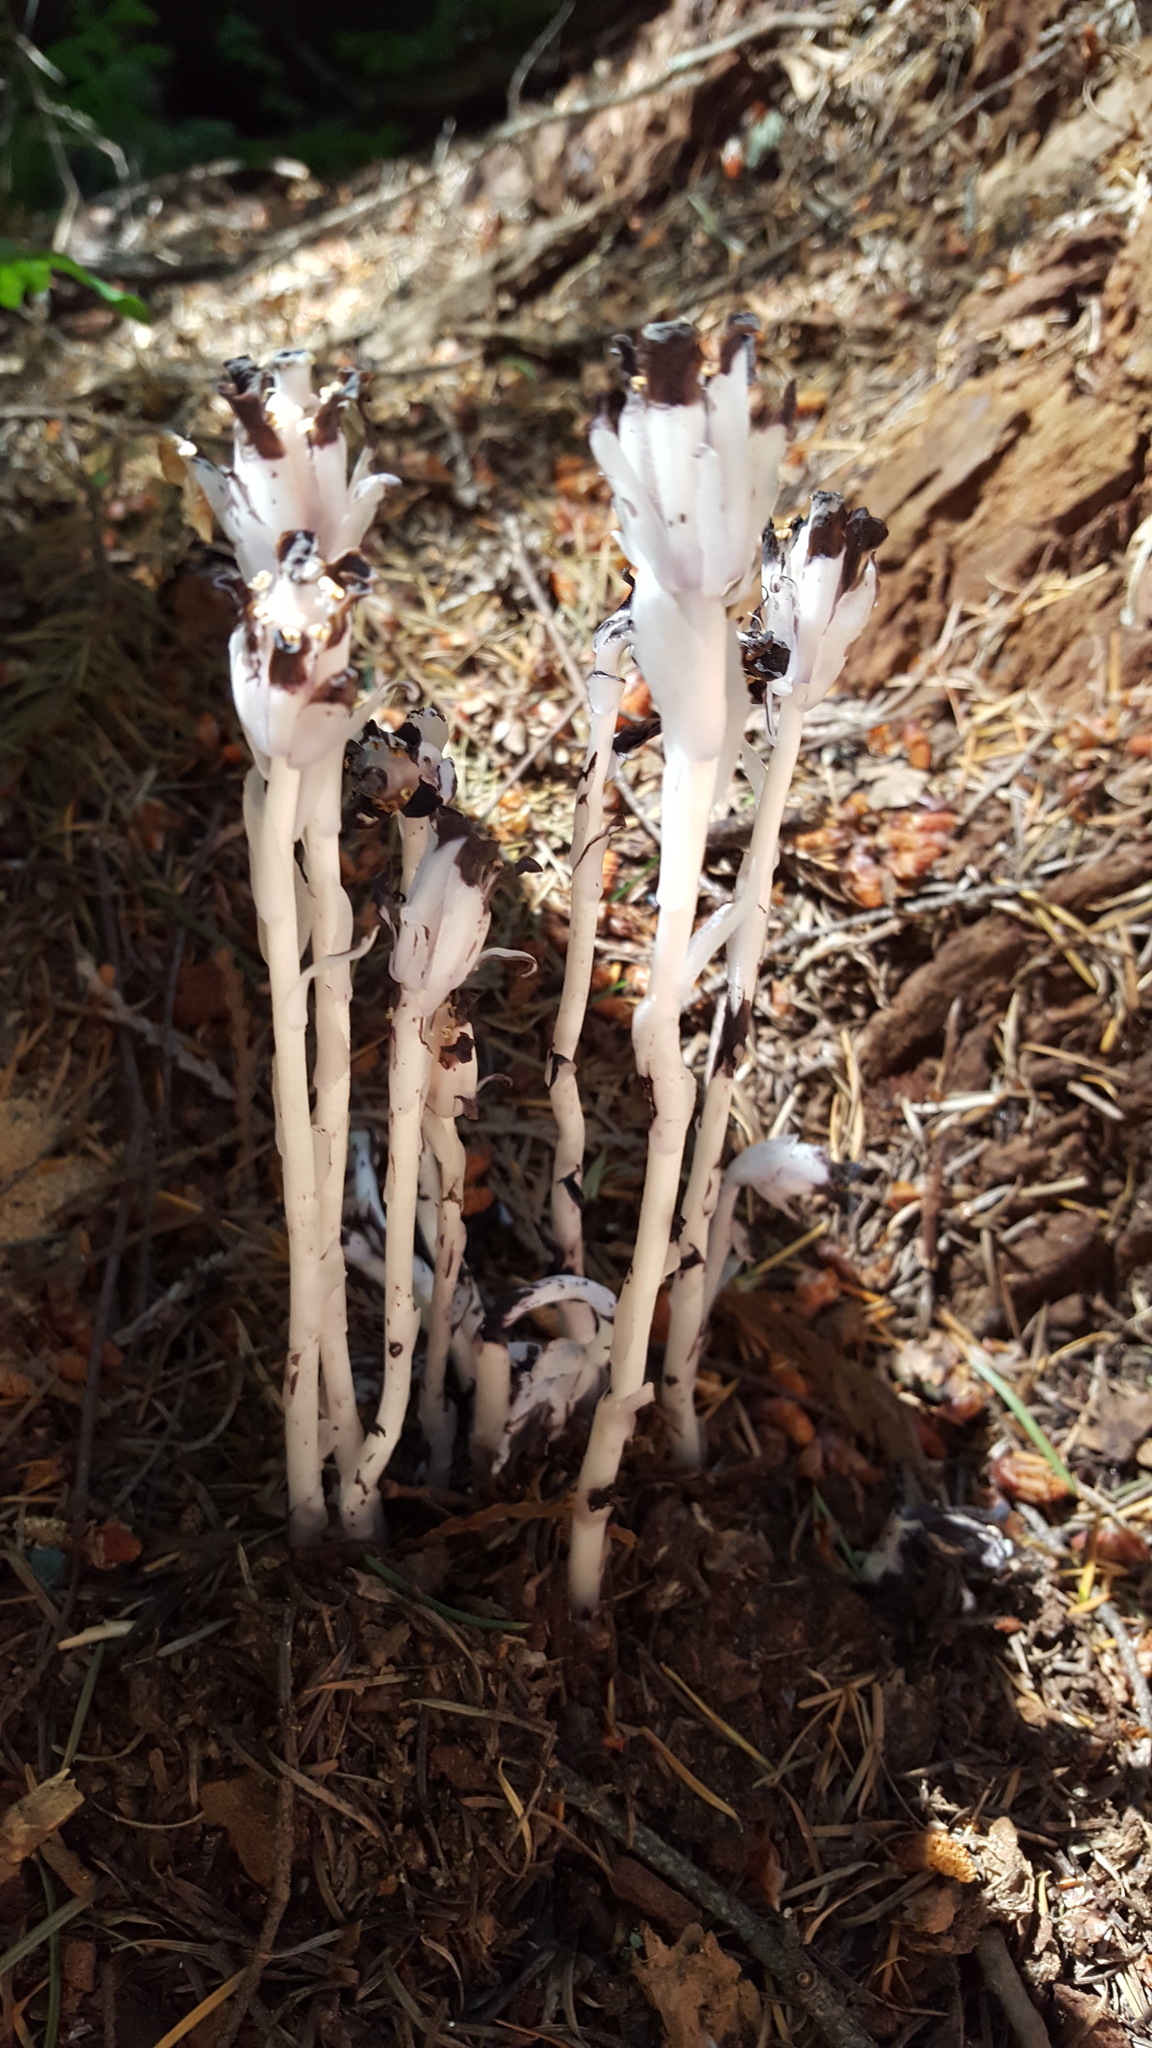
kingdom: Plantae
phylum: Tracheophyta
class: Magnoliopsida
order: Ericales
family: Ericaceae
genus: Monotropa
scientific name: Monotropa uniflora
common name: Convulsion root
